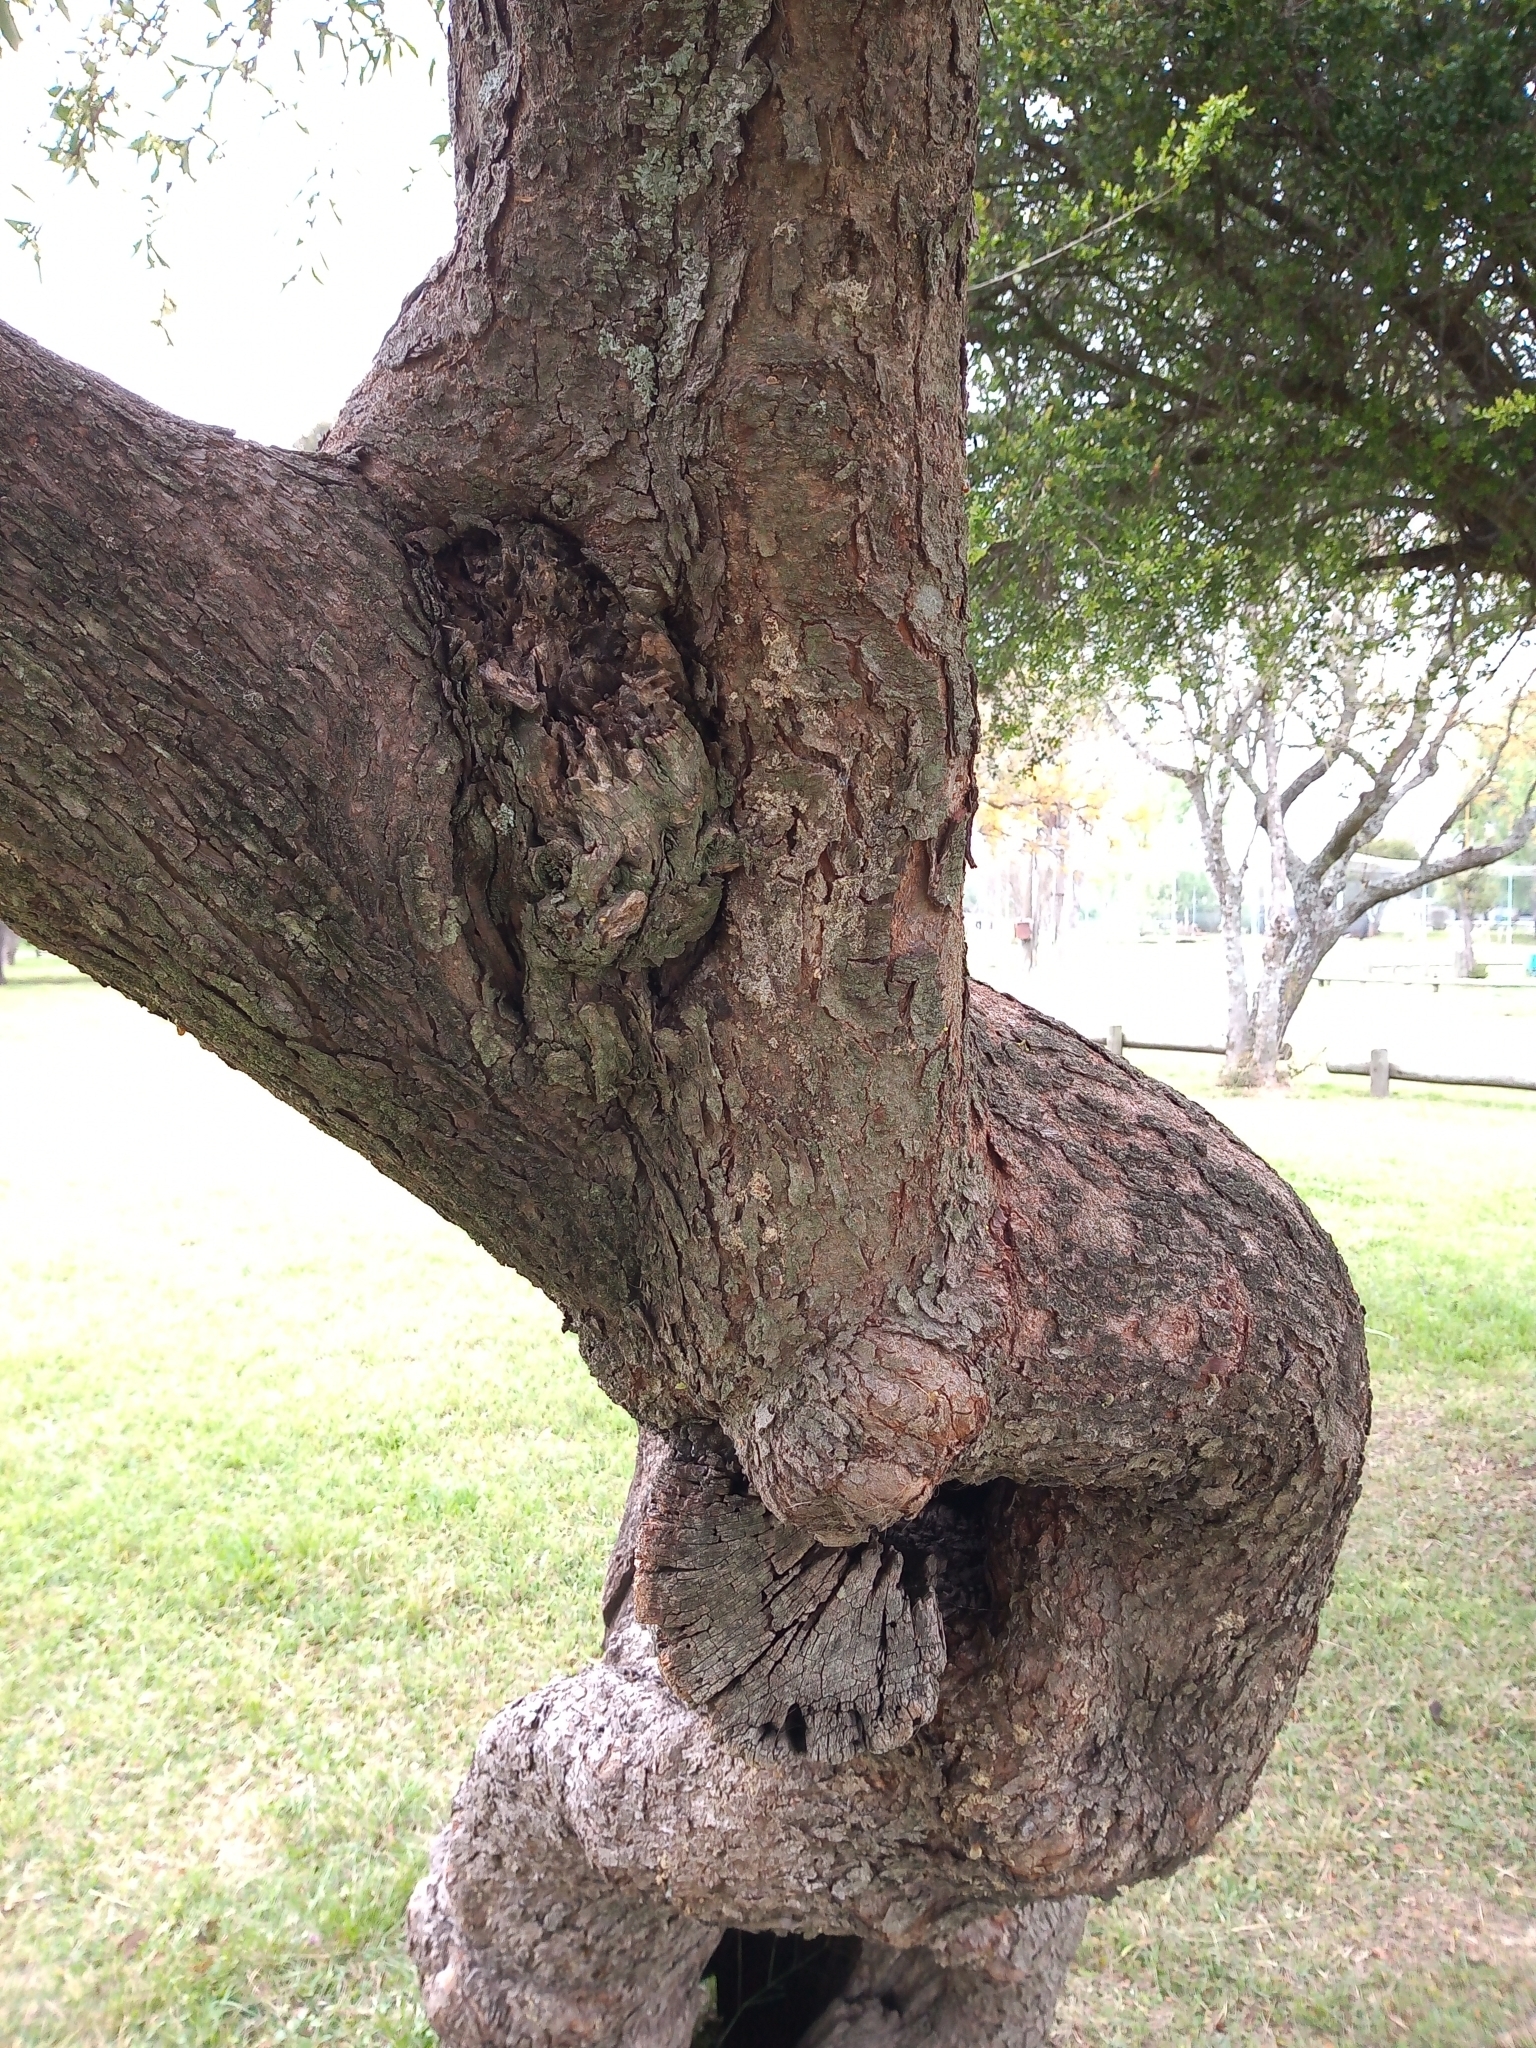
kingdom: Plantae
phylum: Tracheophyta
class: Magnoliopsida
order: Sapindales
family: Anacardiaceae
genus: Schinus
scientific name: Schinus longifolia
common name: Longleaf peppertree
